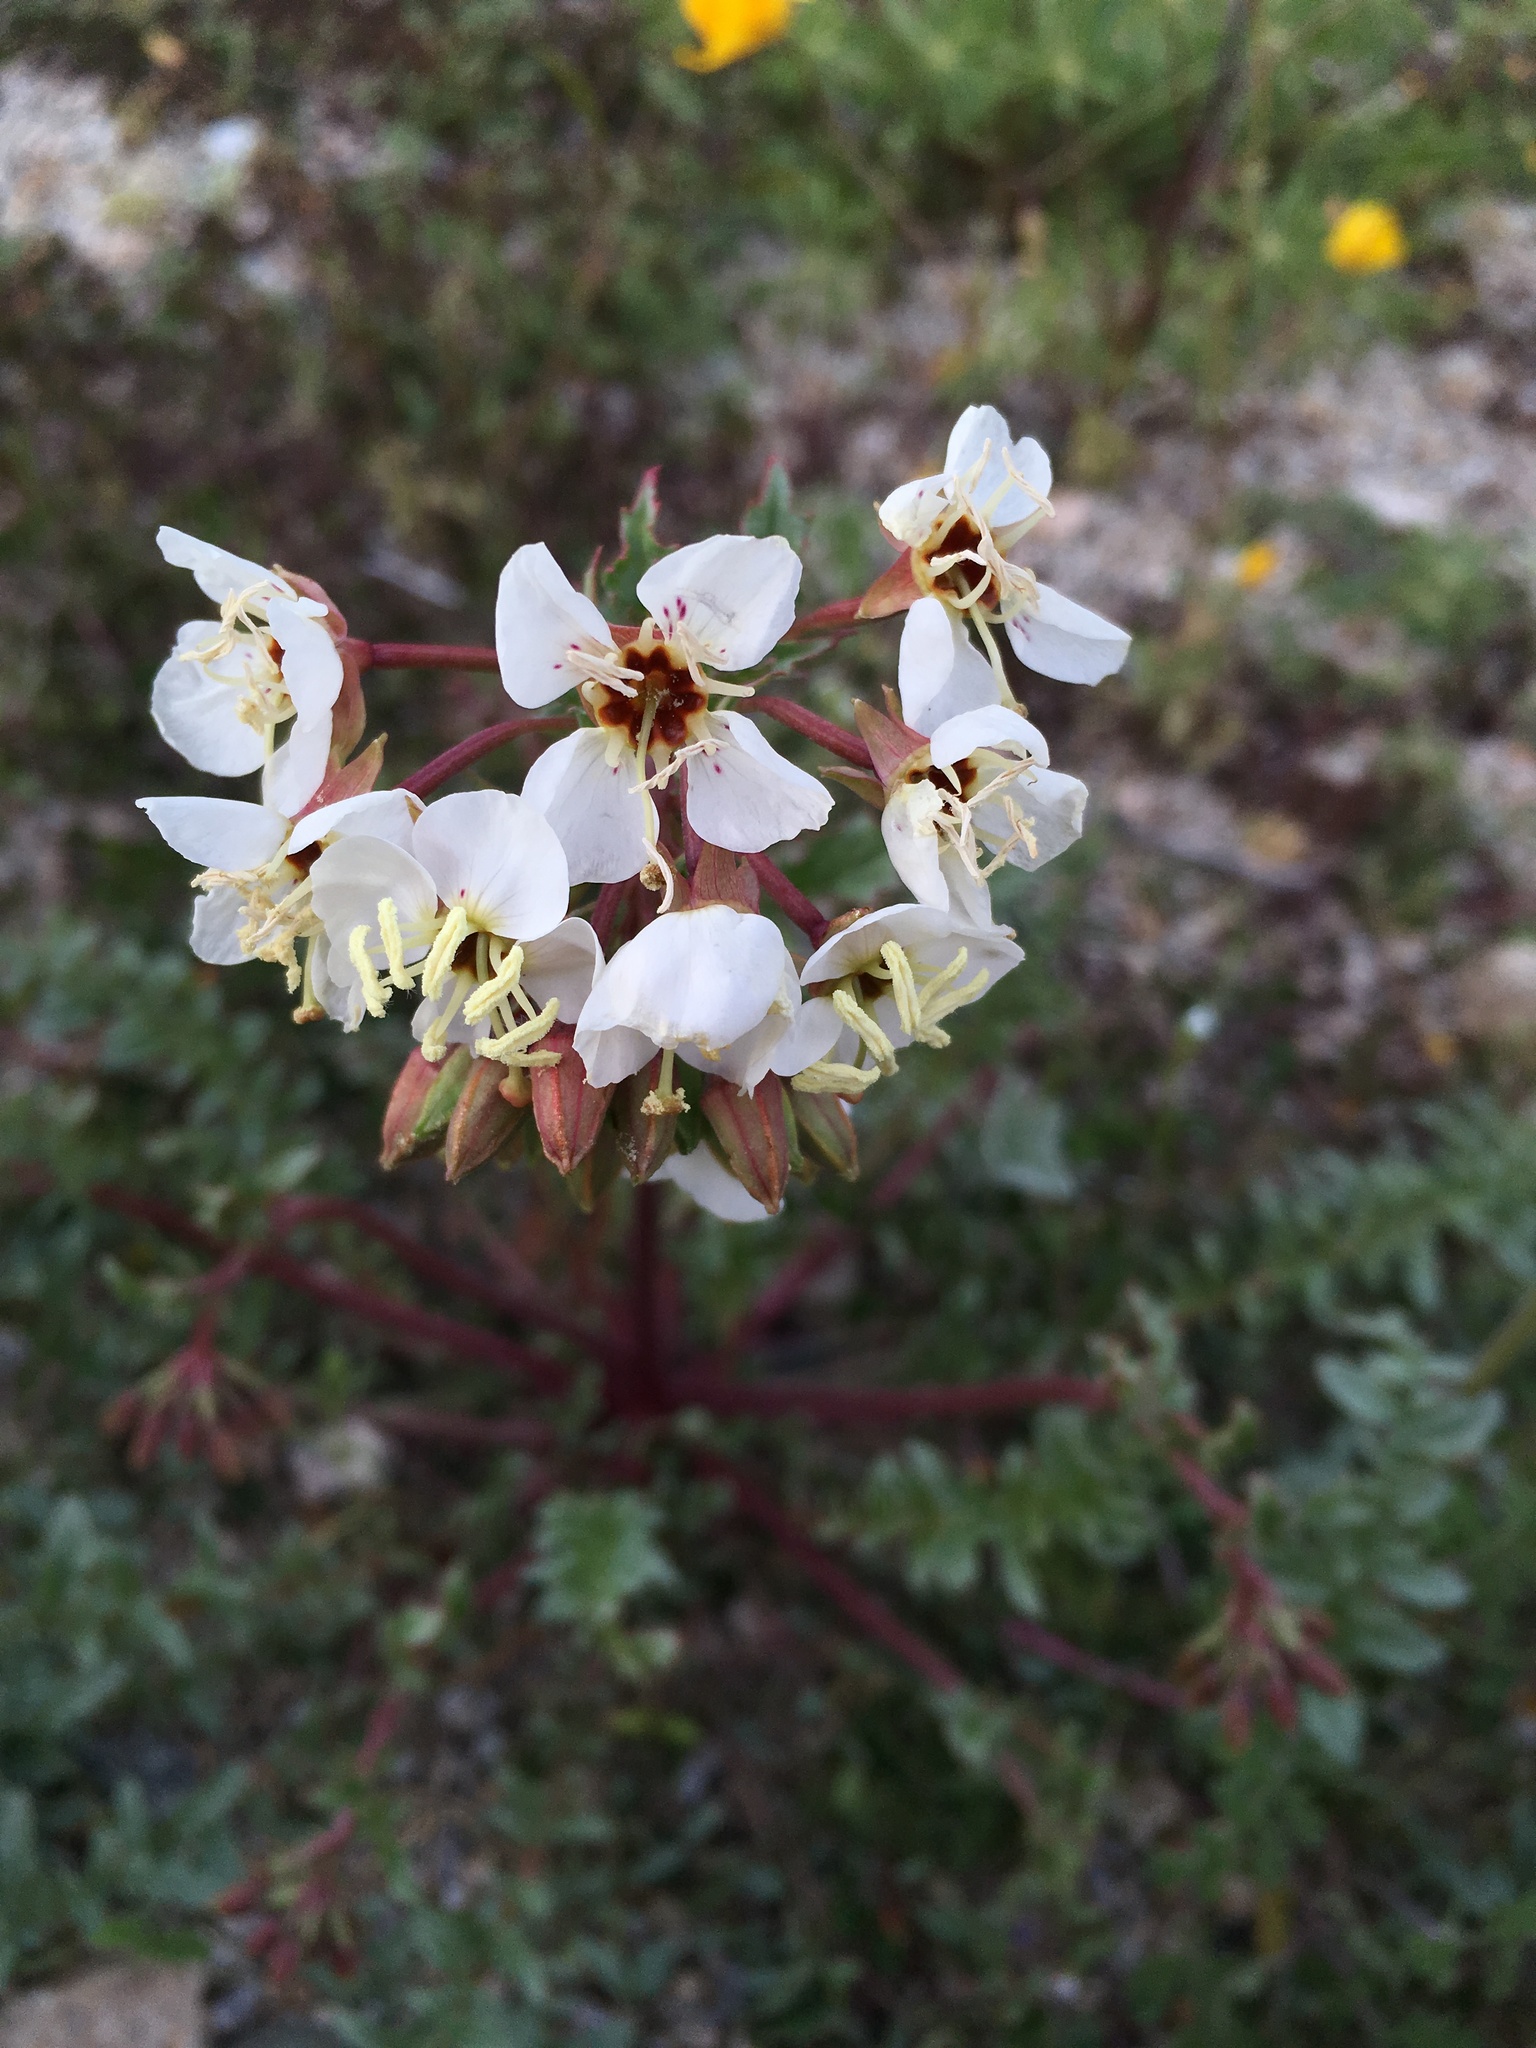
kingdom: Plantae
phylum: Tracheophyta
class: Magnoliopsida
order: Myrtales
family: Onagraceae
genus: Chylismia
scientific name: Chylismia claviformis
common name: Browneyes
